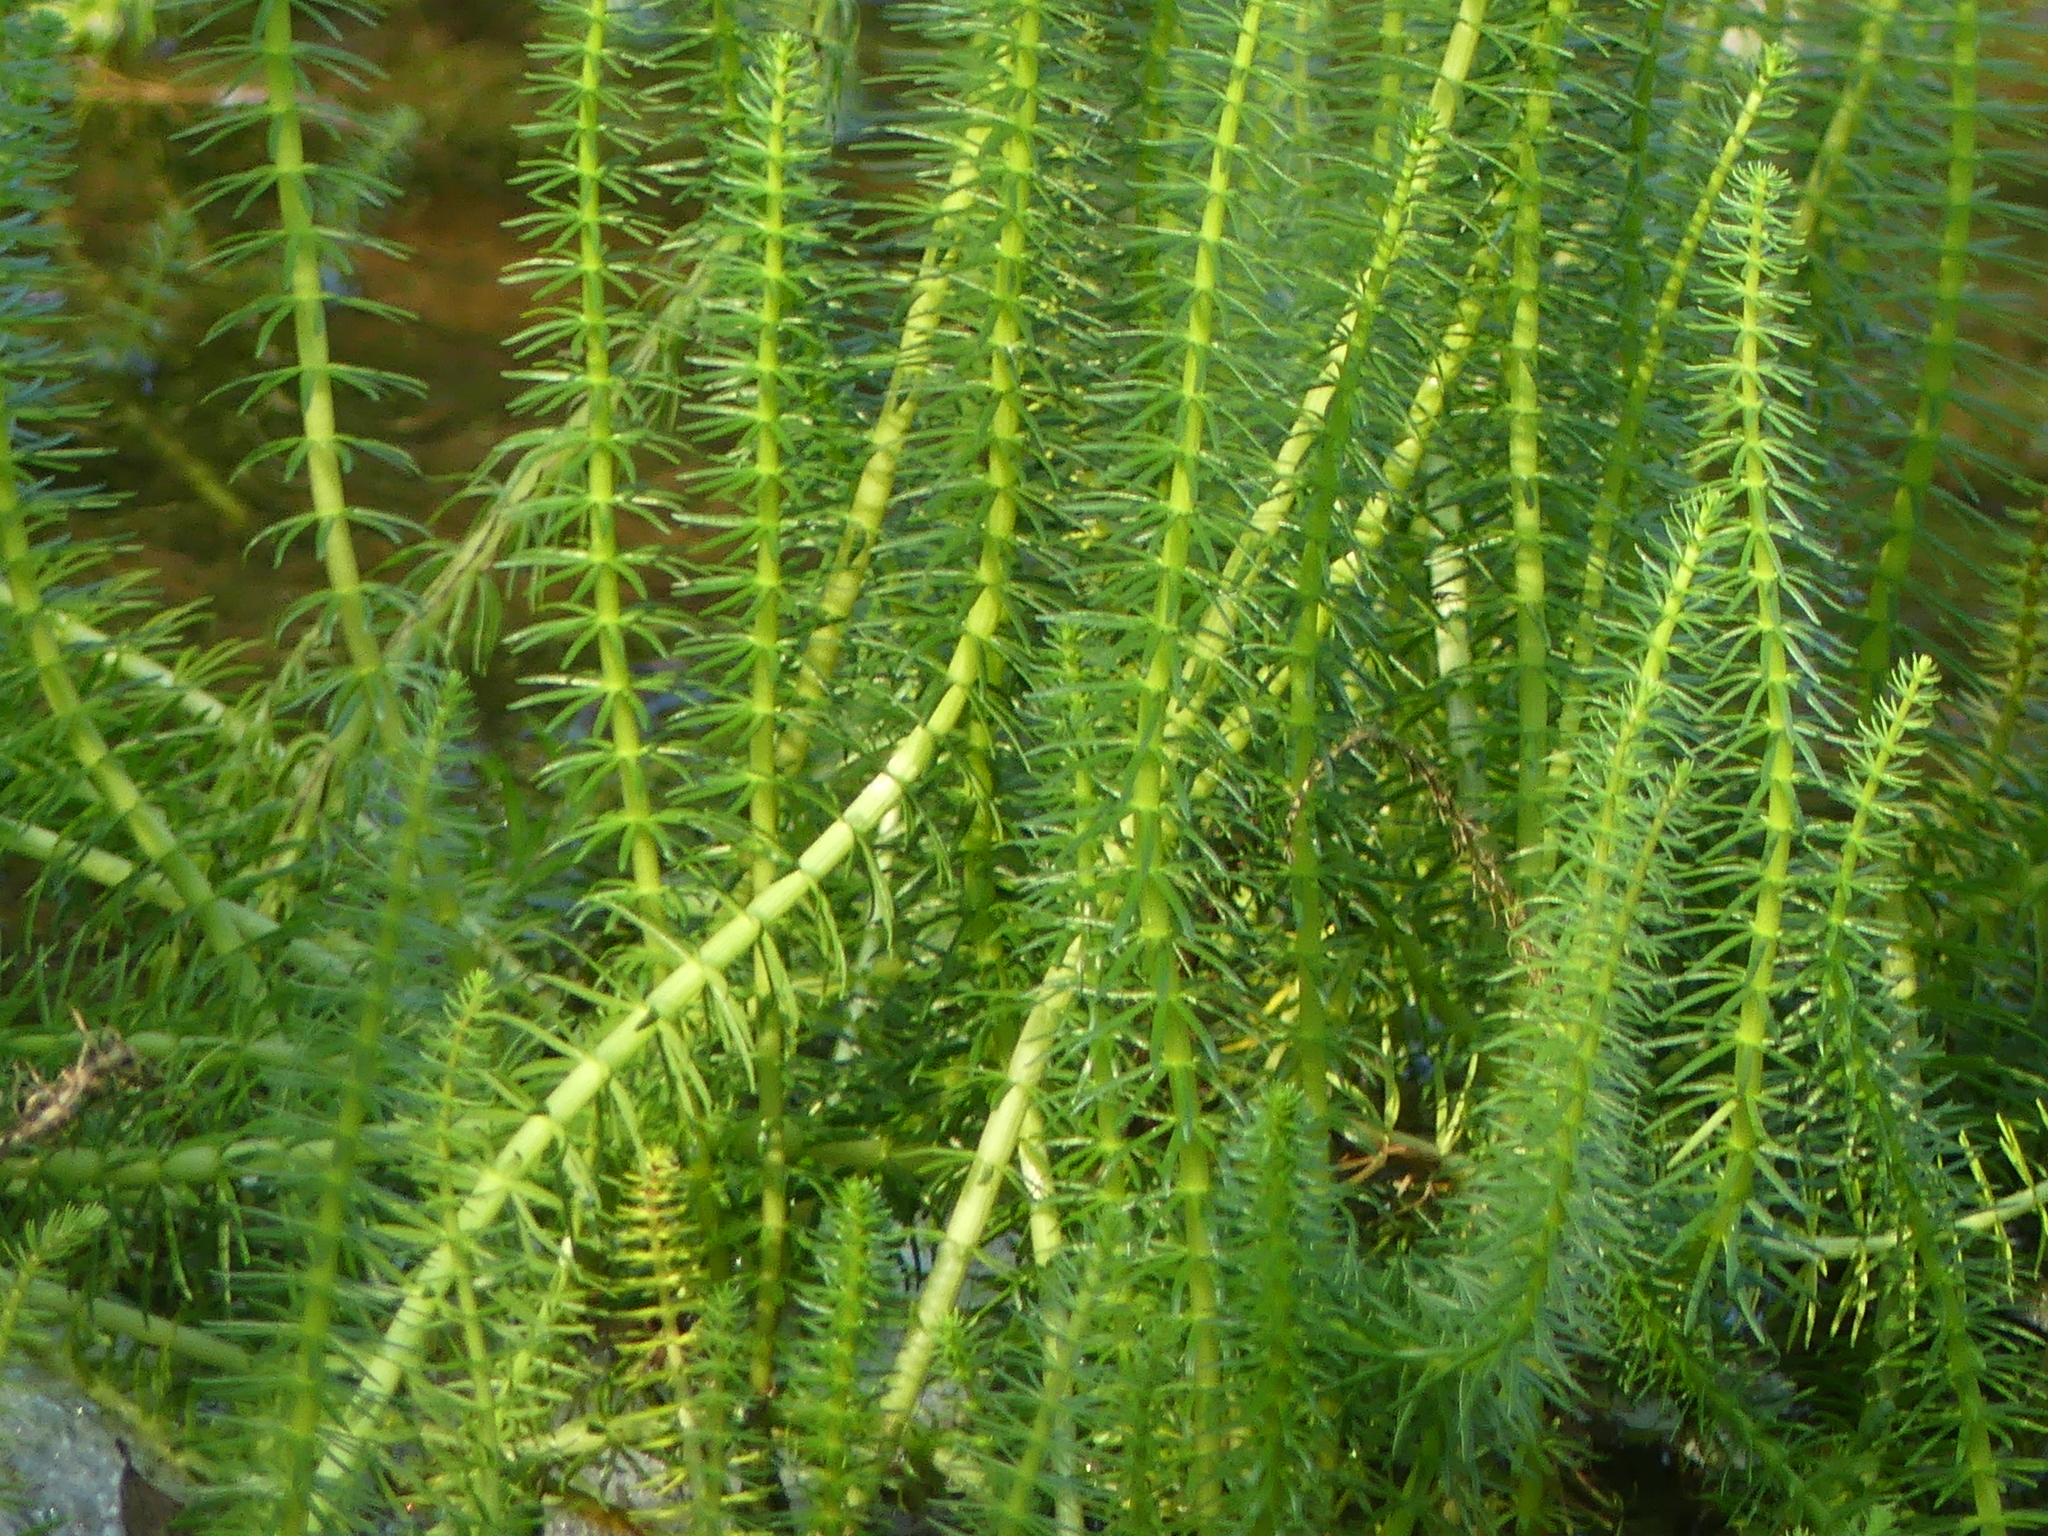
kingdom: Plantae
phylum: Tracheophyta
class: Magnoliopsida
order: Lamiales
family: Plantaginaceae
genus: Hippuris
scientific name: Hippuris vulgaris
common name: Mare's-tail
